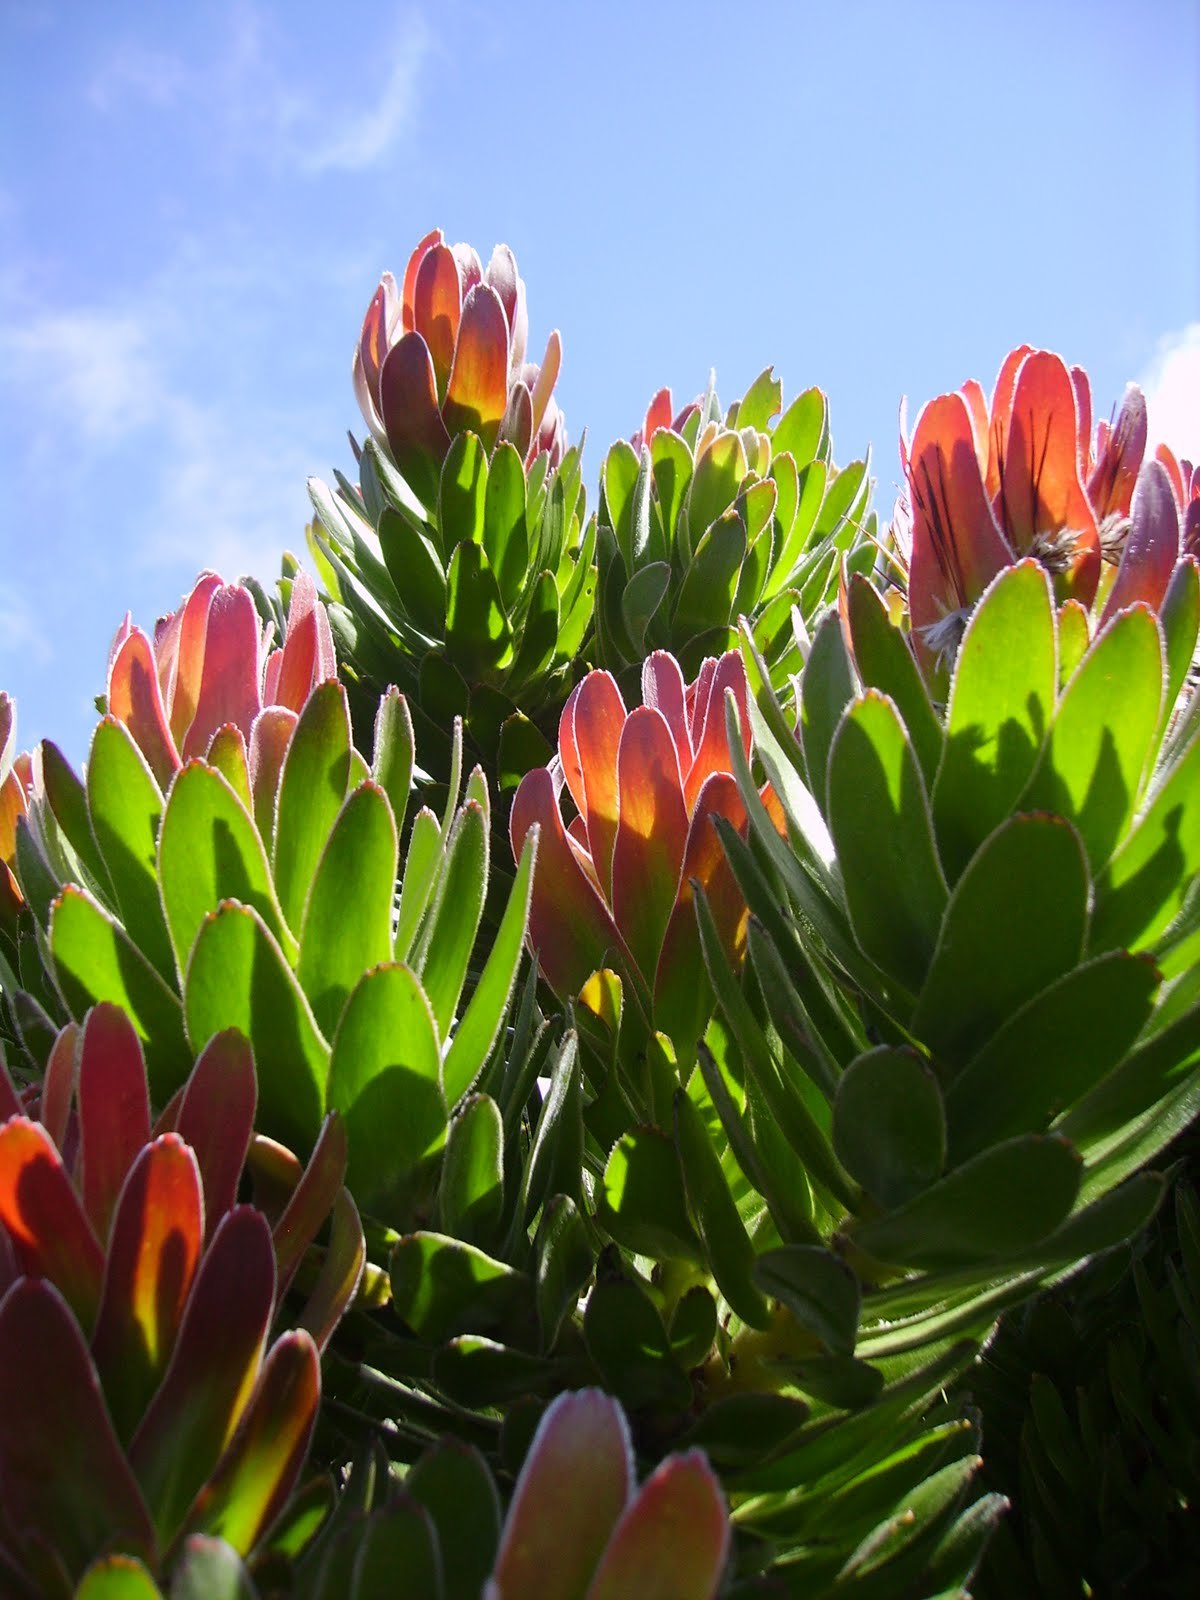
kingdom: Plantae
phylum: Tracheophyta
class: Magnoliopsida
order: Proteales
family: Proteaceae
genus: Mimetes
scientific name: Mimetes fimbriifolius
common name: Fringed bottlebrush
